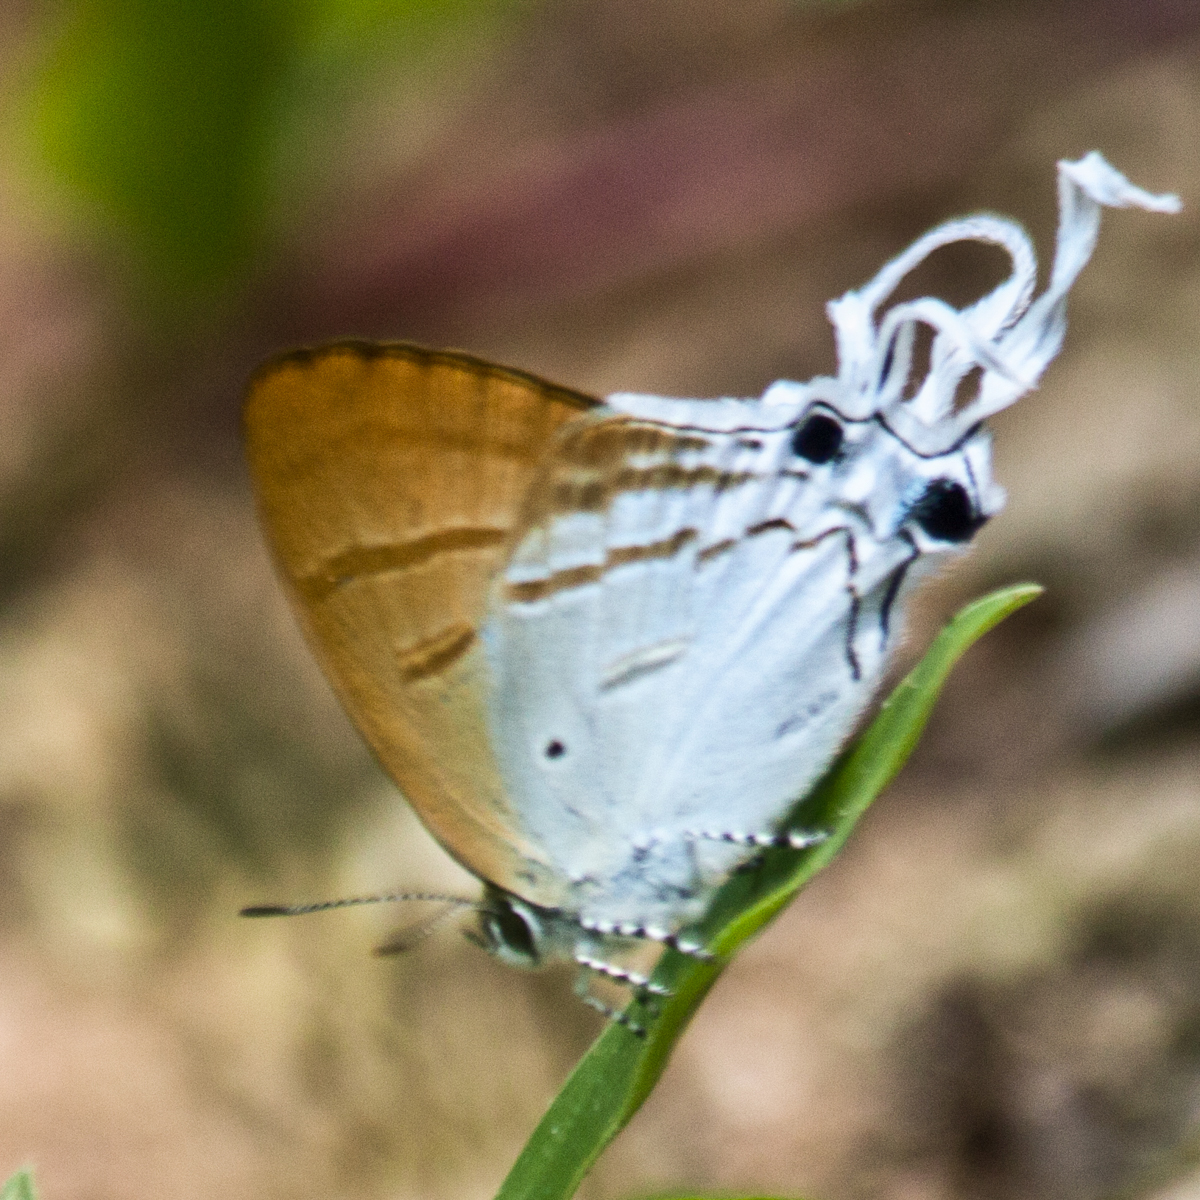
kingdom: Animalia
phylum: Arthropoda
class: Insecta
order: Lepidoptera
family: Lycaenidae
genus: Zeltus
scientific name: Zeltus amasa
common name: Fluffy tit
